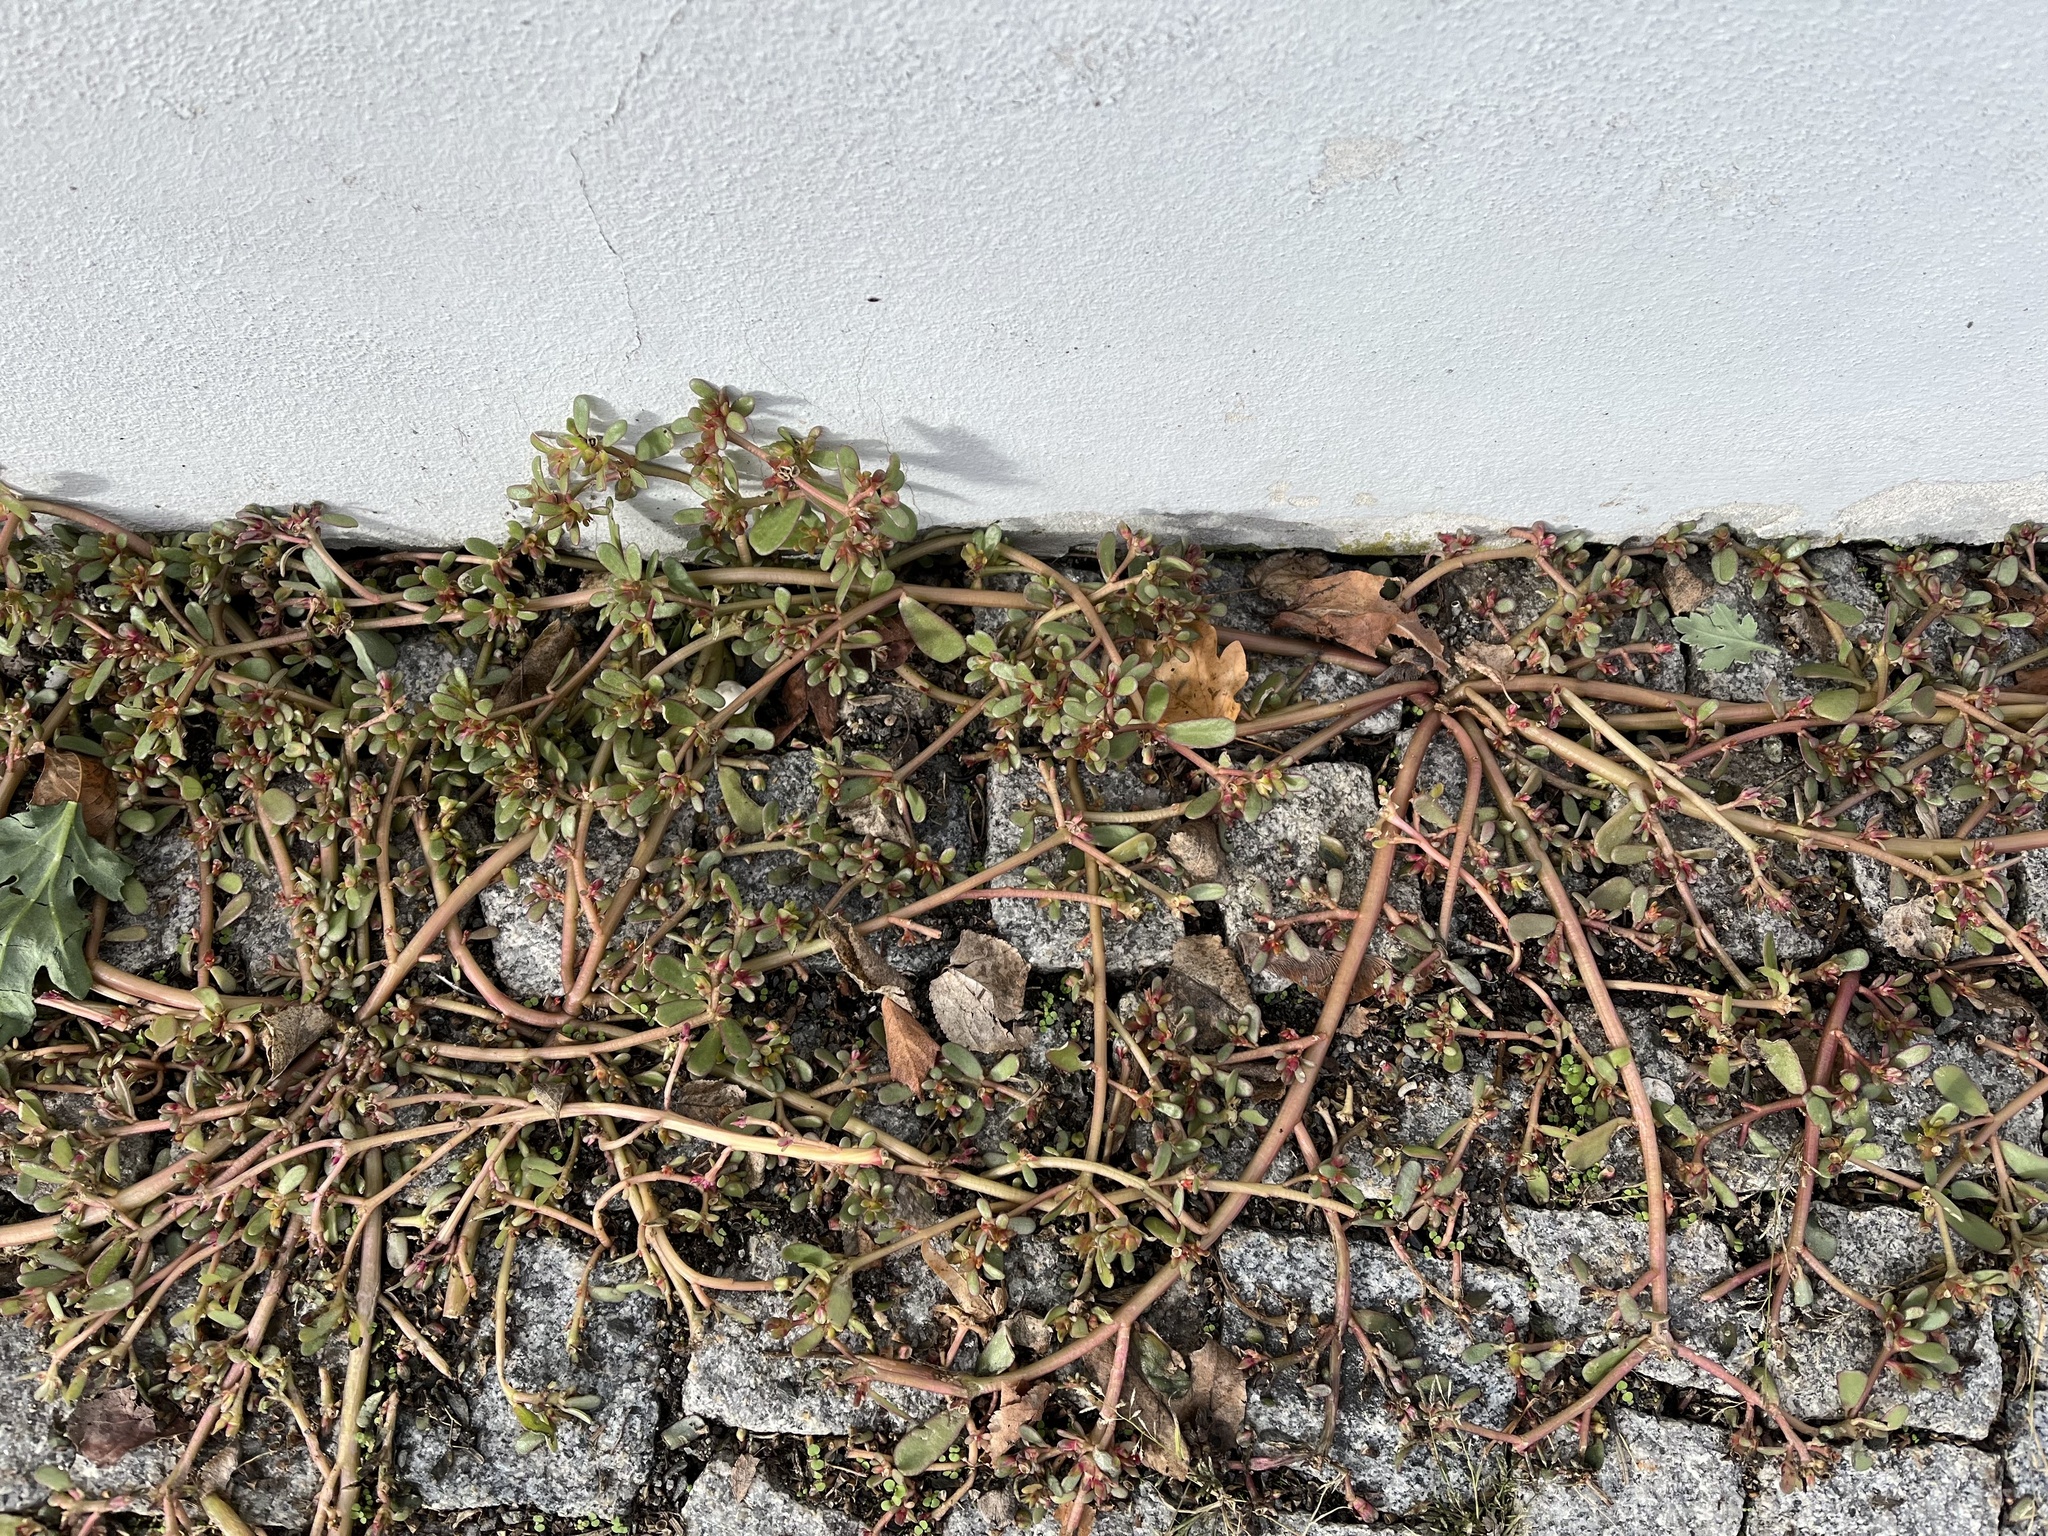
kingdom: Plantae
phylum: Tracheophyta
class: Magnoliopsida
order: Caryophyllales
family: Portulacaceae
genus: Portulaca
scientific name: Portulaca oleracea
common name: Common purslane
